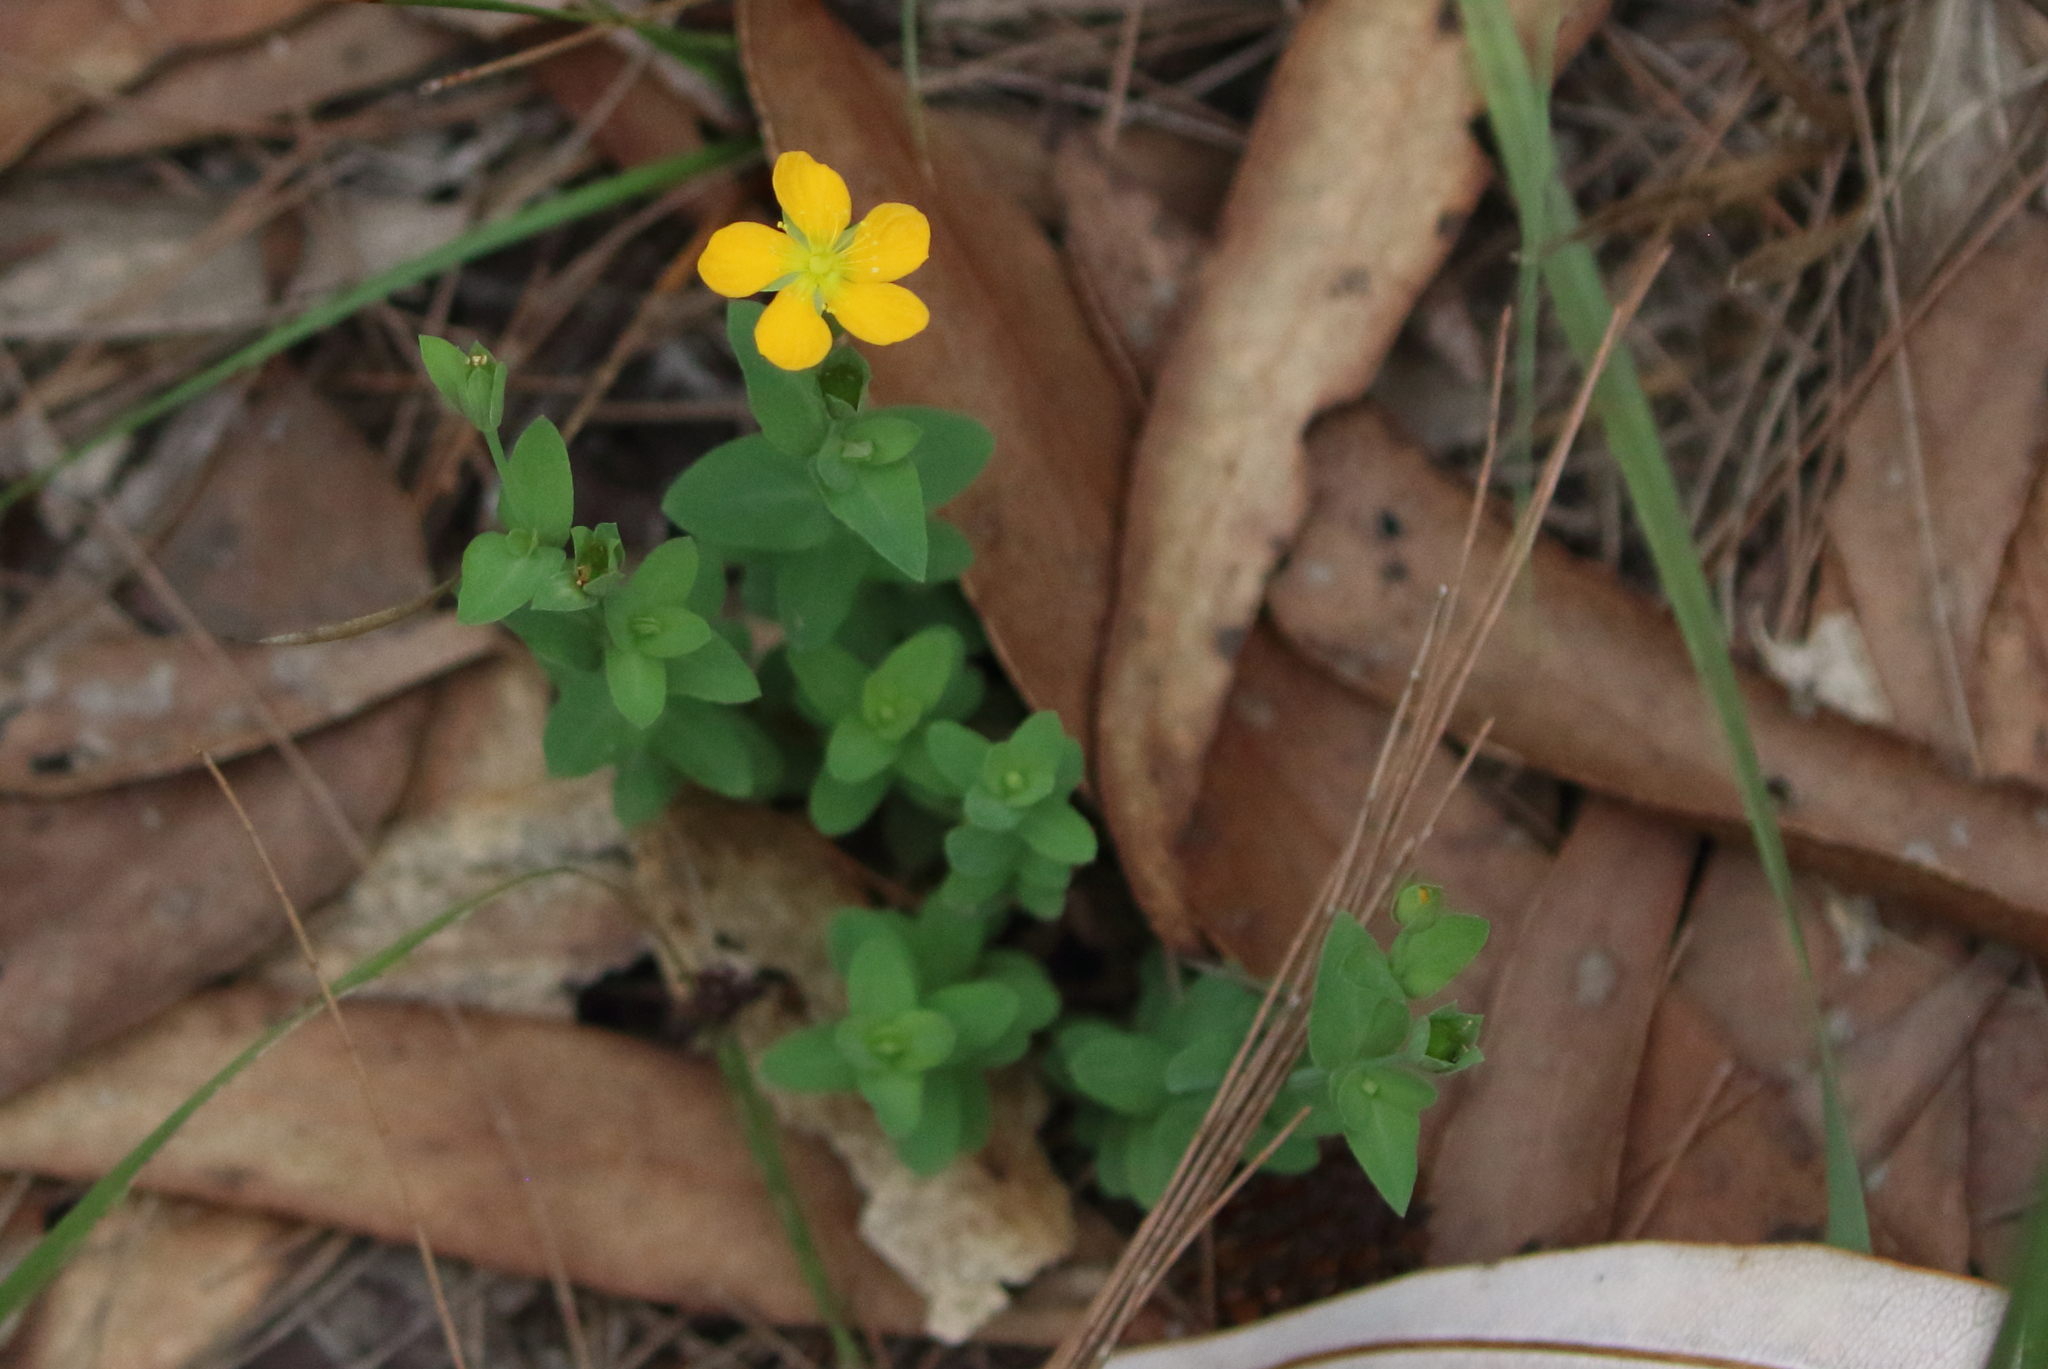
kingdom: Plantae
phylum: Tracheophyta
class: Magnoliopsida
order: Malpighiales
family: Hypericaceae
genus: Hypericum
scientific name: Hypericum gramineum
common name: Grassy st. johnswort
